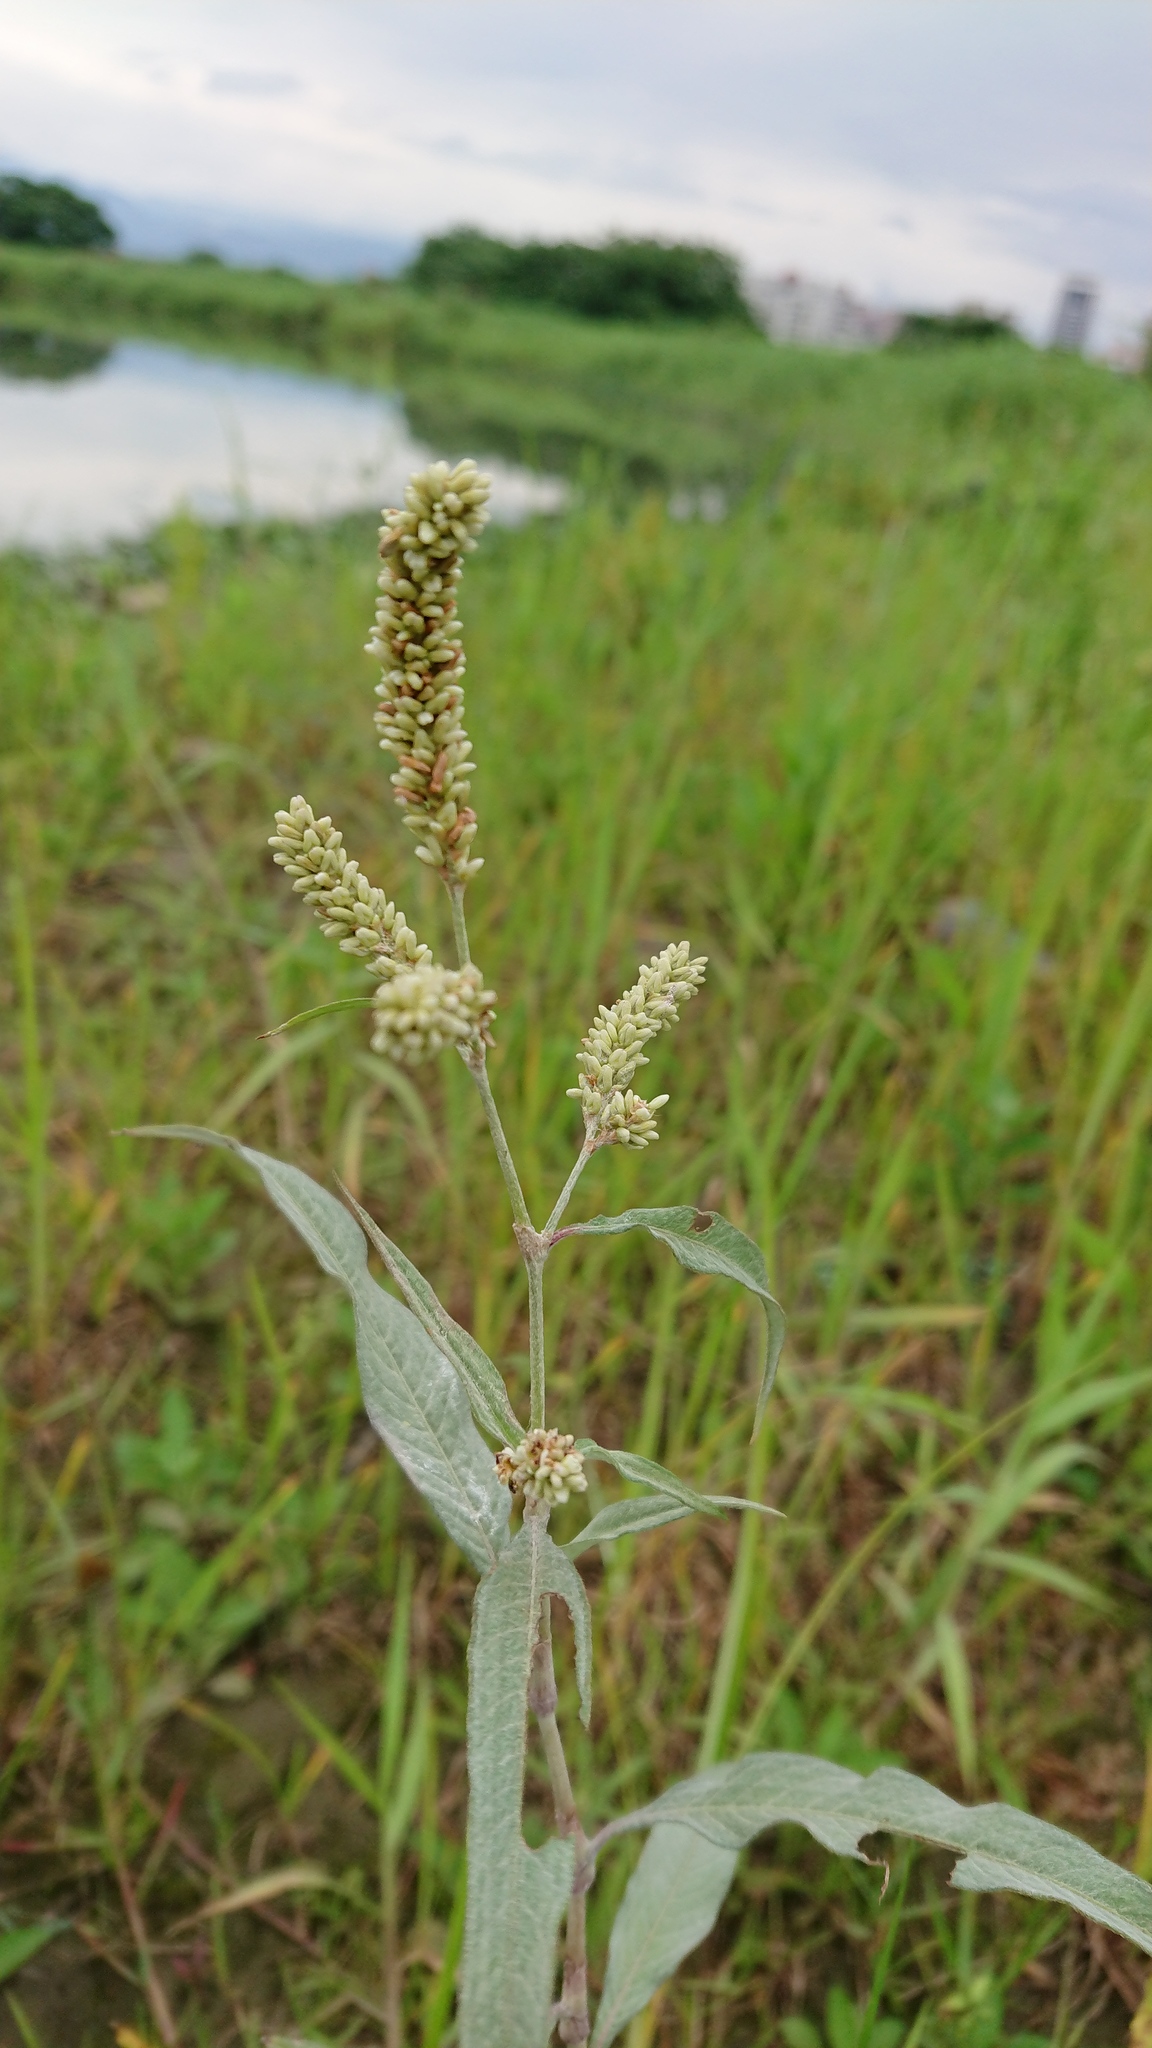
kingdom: Plantae
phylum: Tracheophyta
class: Magnoliopsida
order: Caryophyllales
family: Polygonaceae
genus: Persicaria
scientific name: Persicaria lanata
